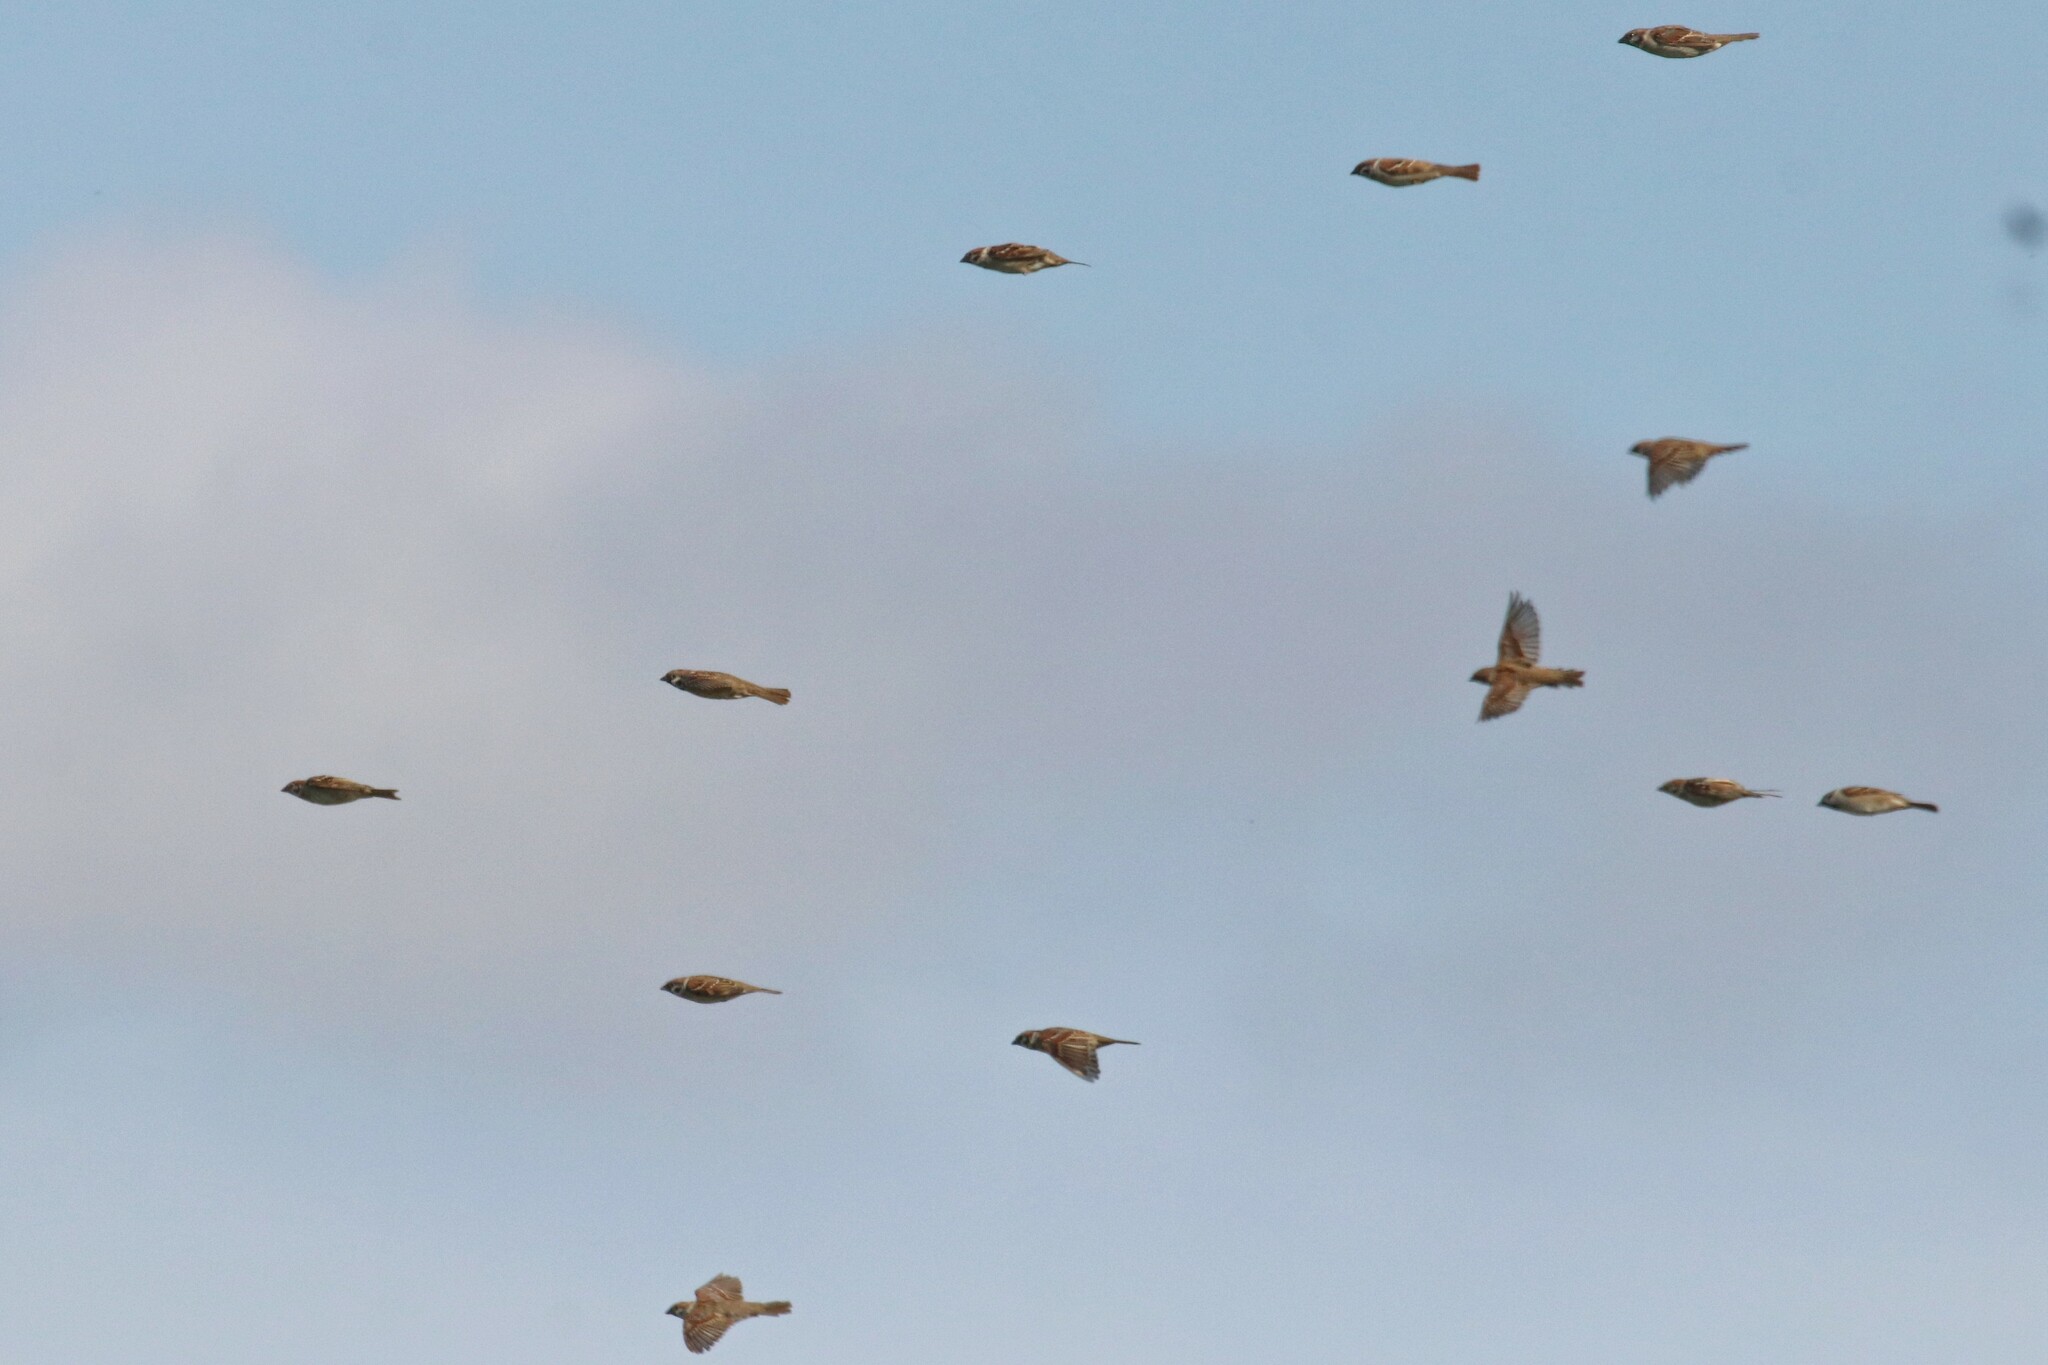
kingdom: Animalia
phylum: Chordata
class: Aves
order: Passeriformes
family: Passeridae
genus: Passer
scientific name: Passer montanus
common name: Eurasian tree sparrow
